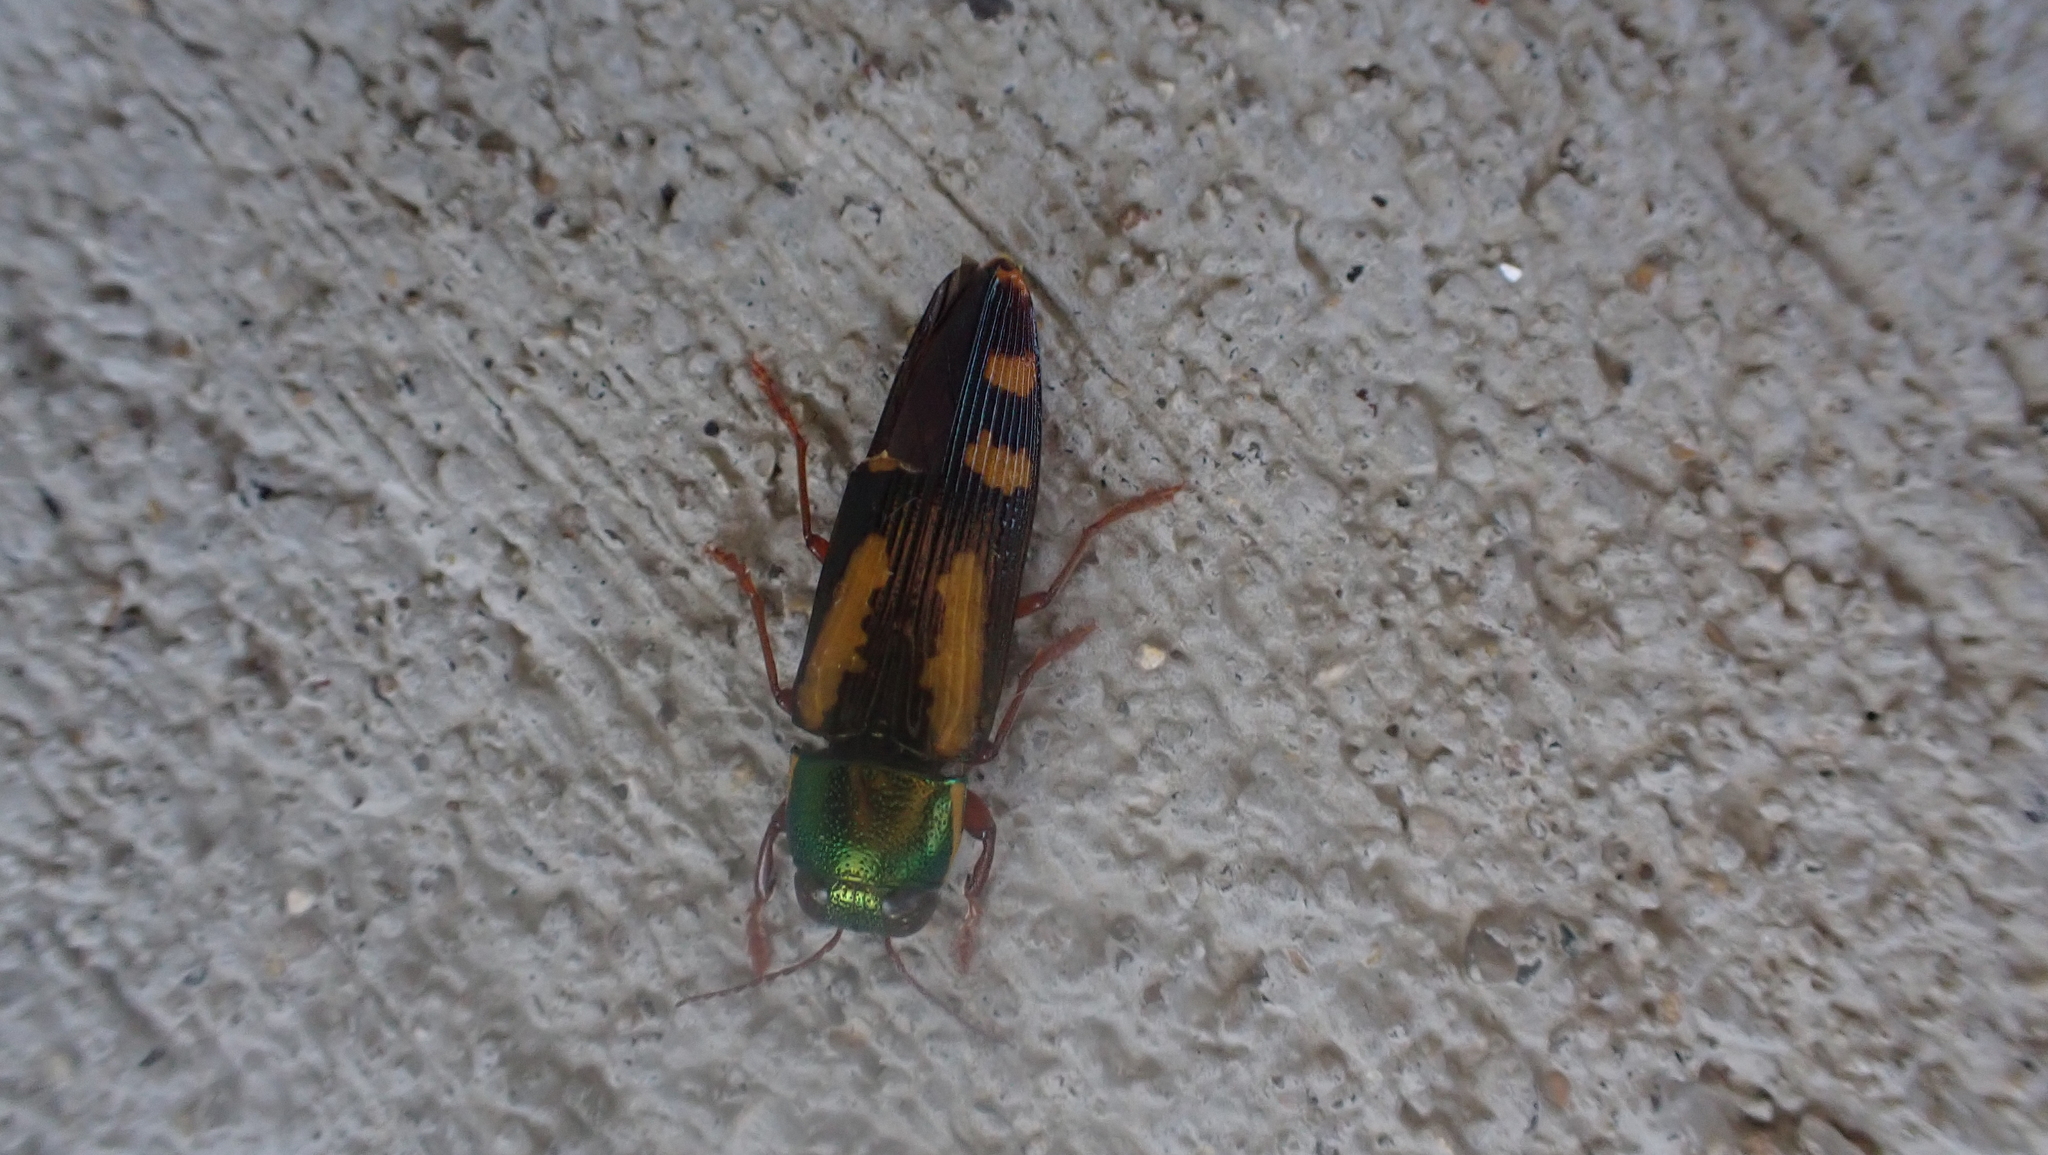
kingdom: Animalia
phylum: Arthropoda
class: Insecta
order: Coleoptera
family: Buprestidae
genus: Buprestis
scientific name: Buprestis rufipes
